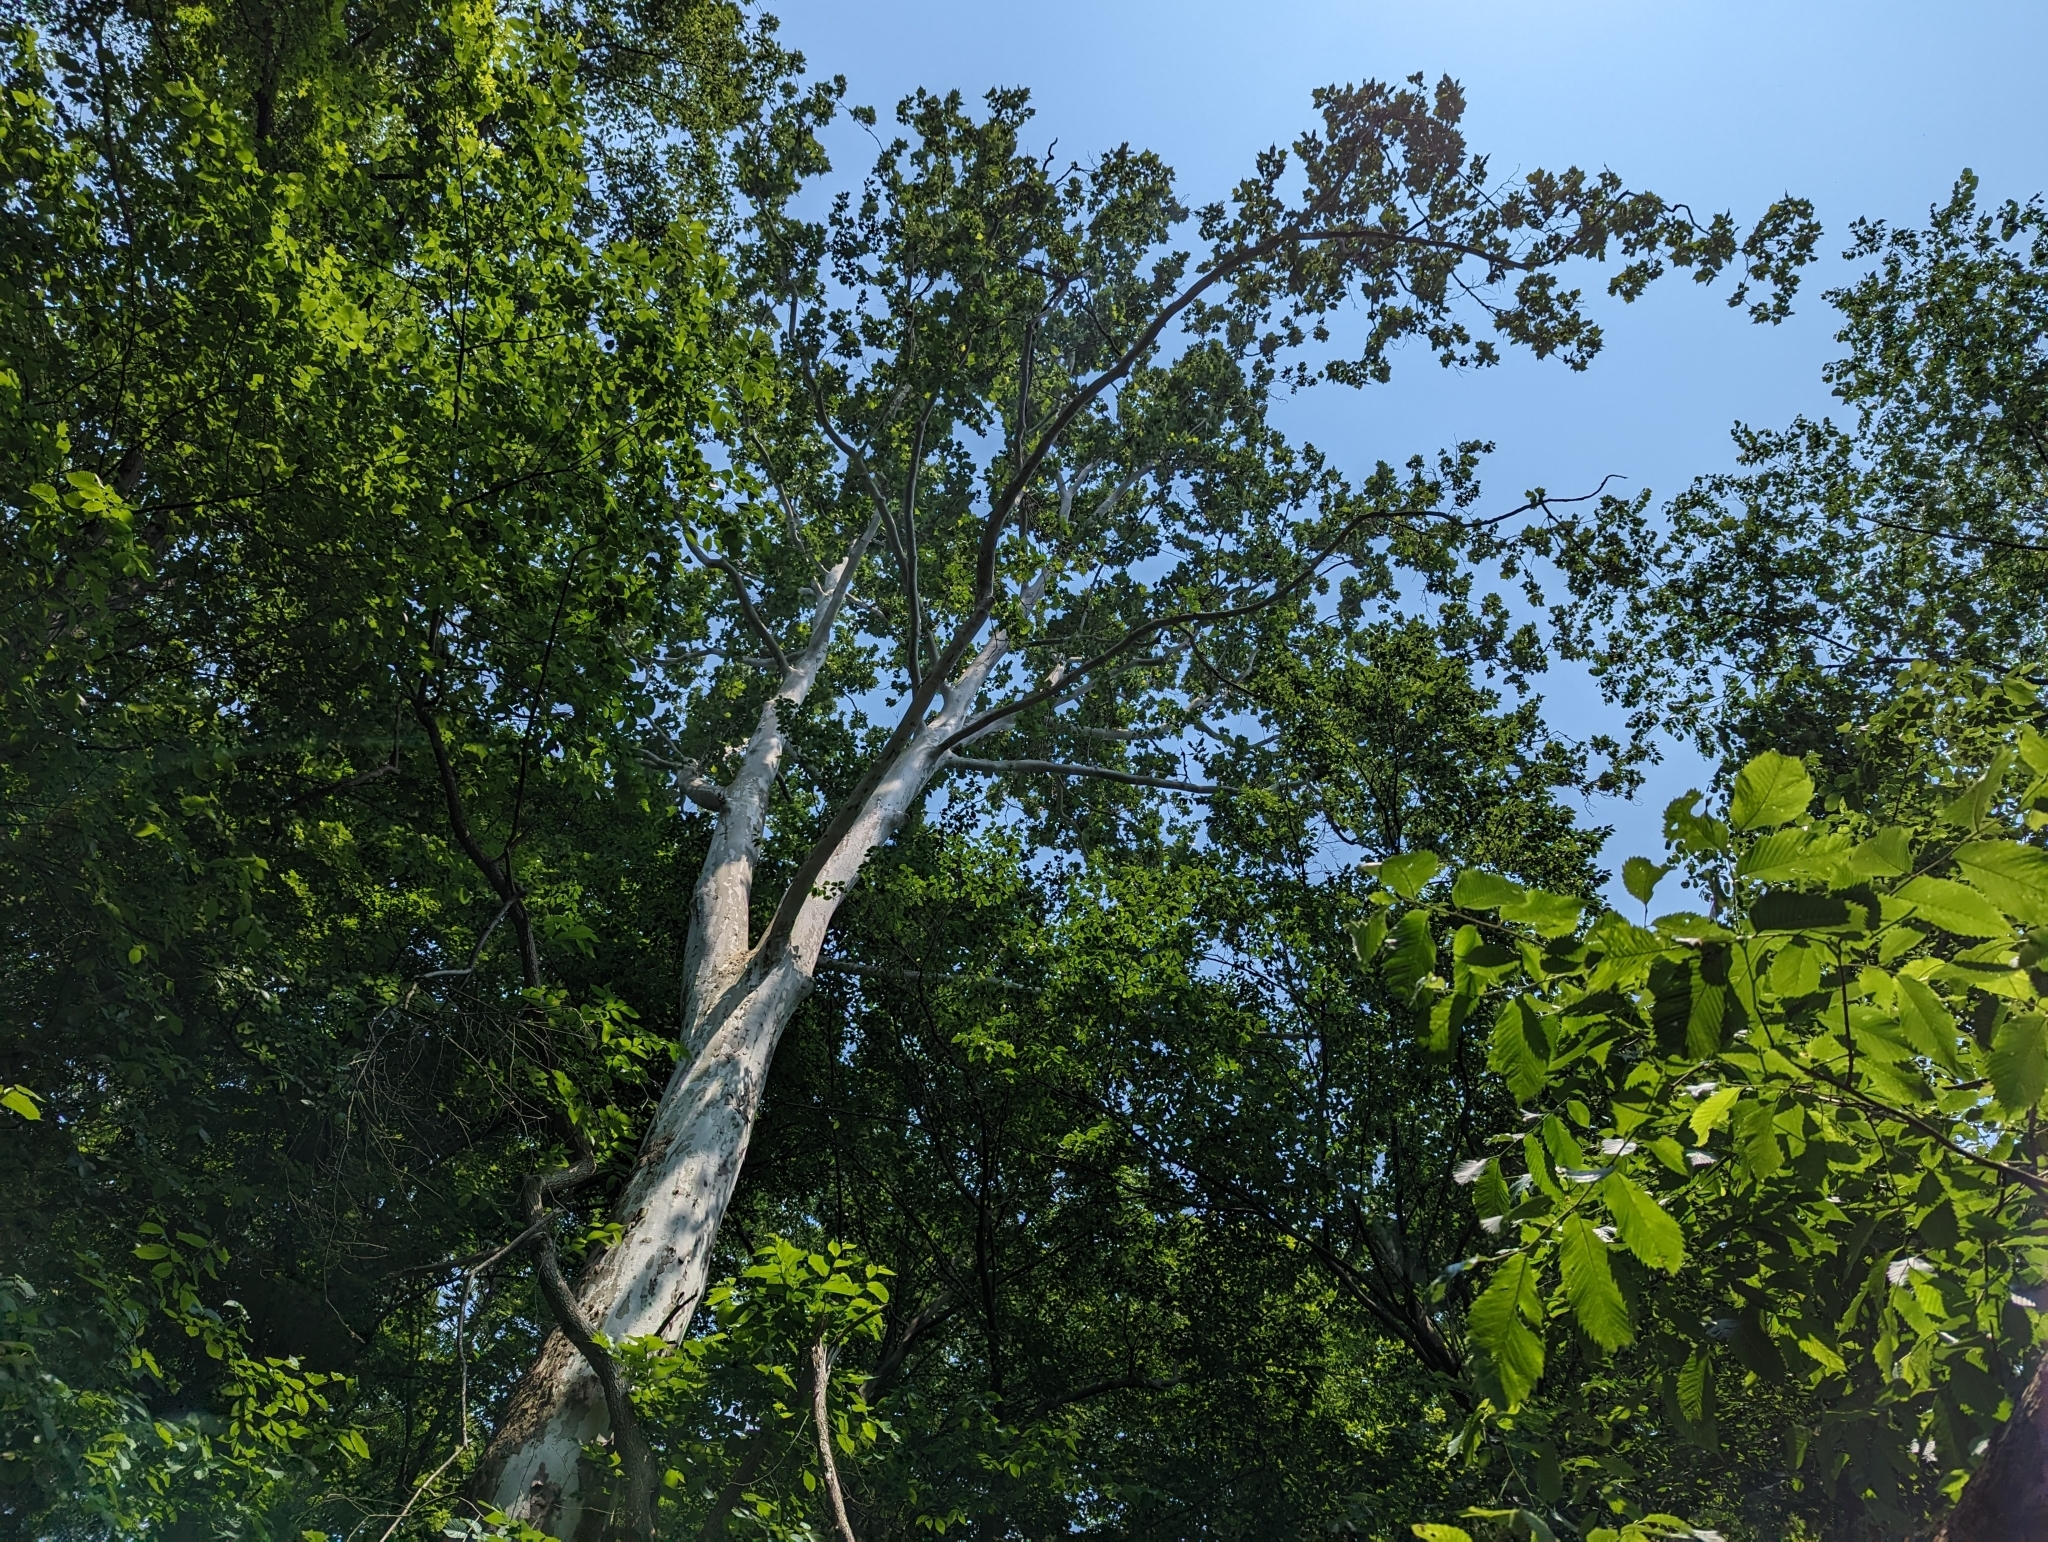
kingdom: Plantae
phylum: Tracheophyta
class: Magnoliopsida
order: Proteales
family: Platanaceae
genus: Platanus
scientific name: Platanus occidentalis
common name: American sycamore
